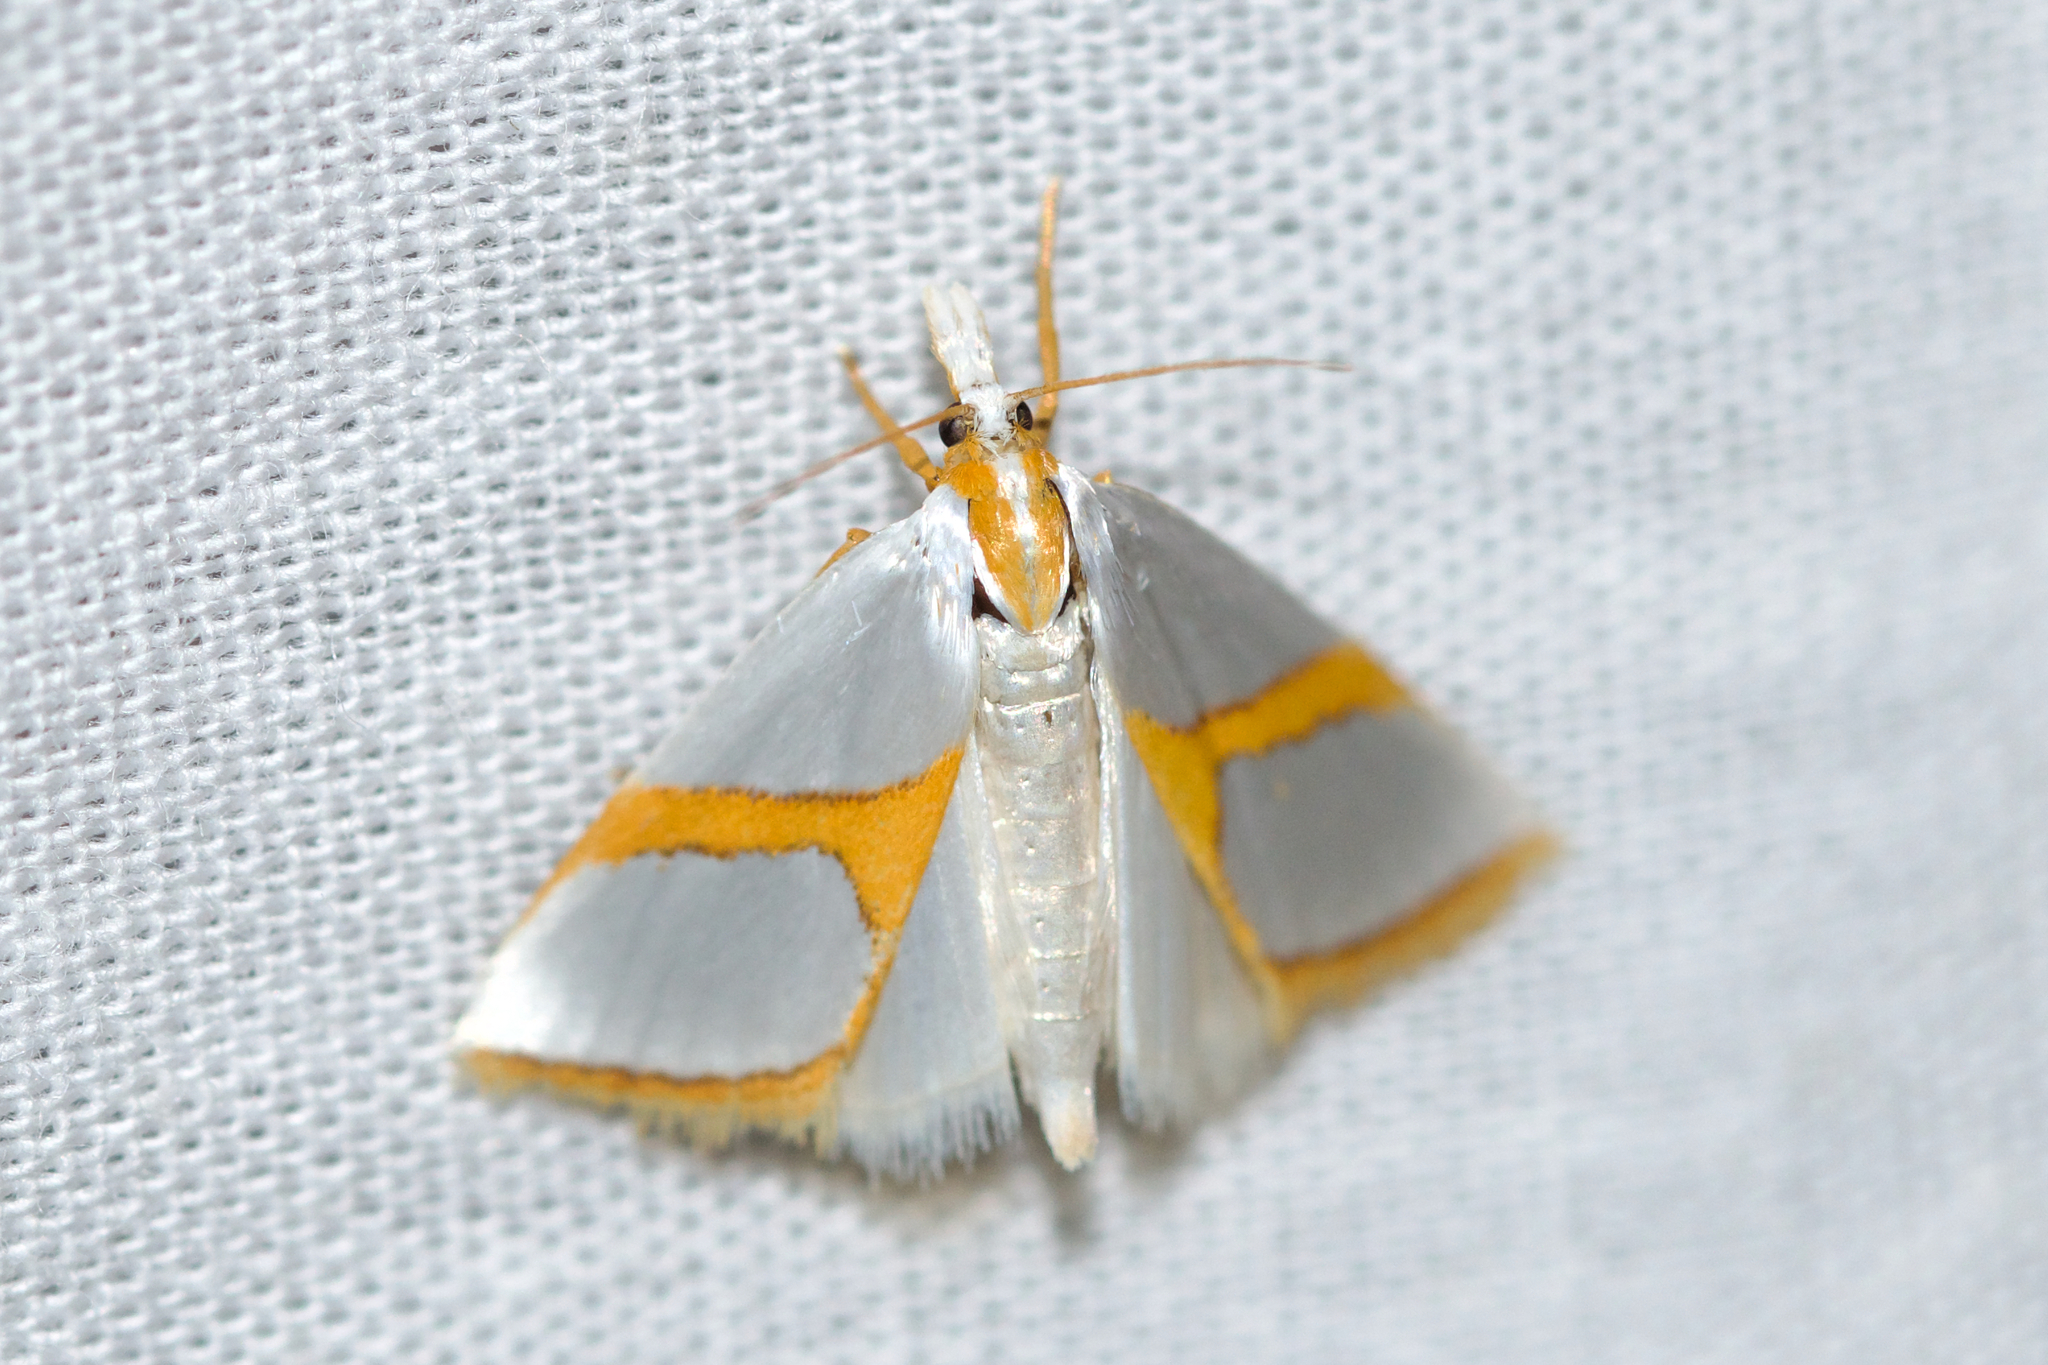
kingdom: Animalia
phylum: Arthropoda
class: Insecta
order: Lepidoptera
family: Crambidae
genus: Argyria
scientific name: Argyria auratella
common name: Curve-lined argyria moth
